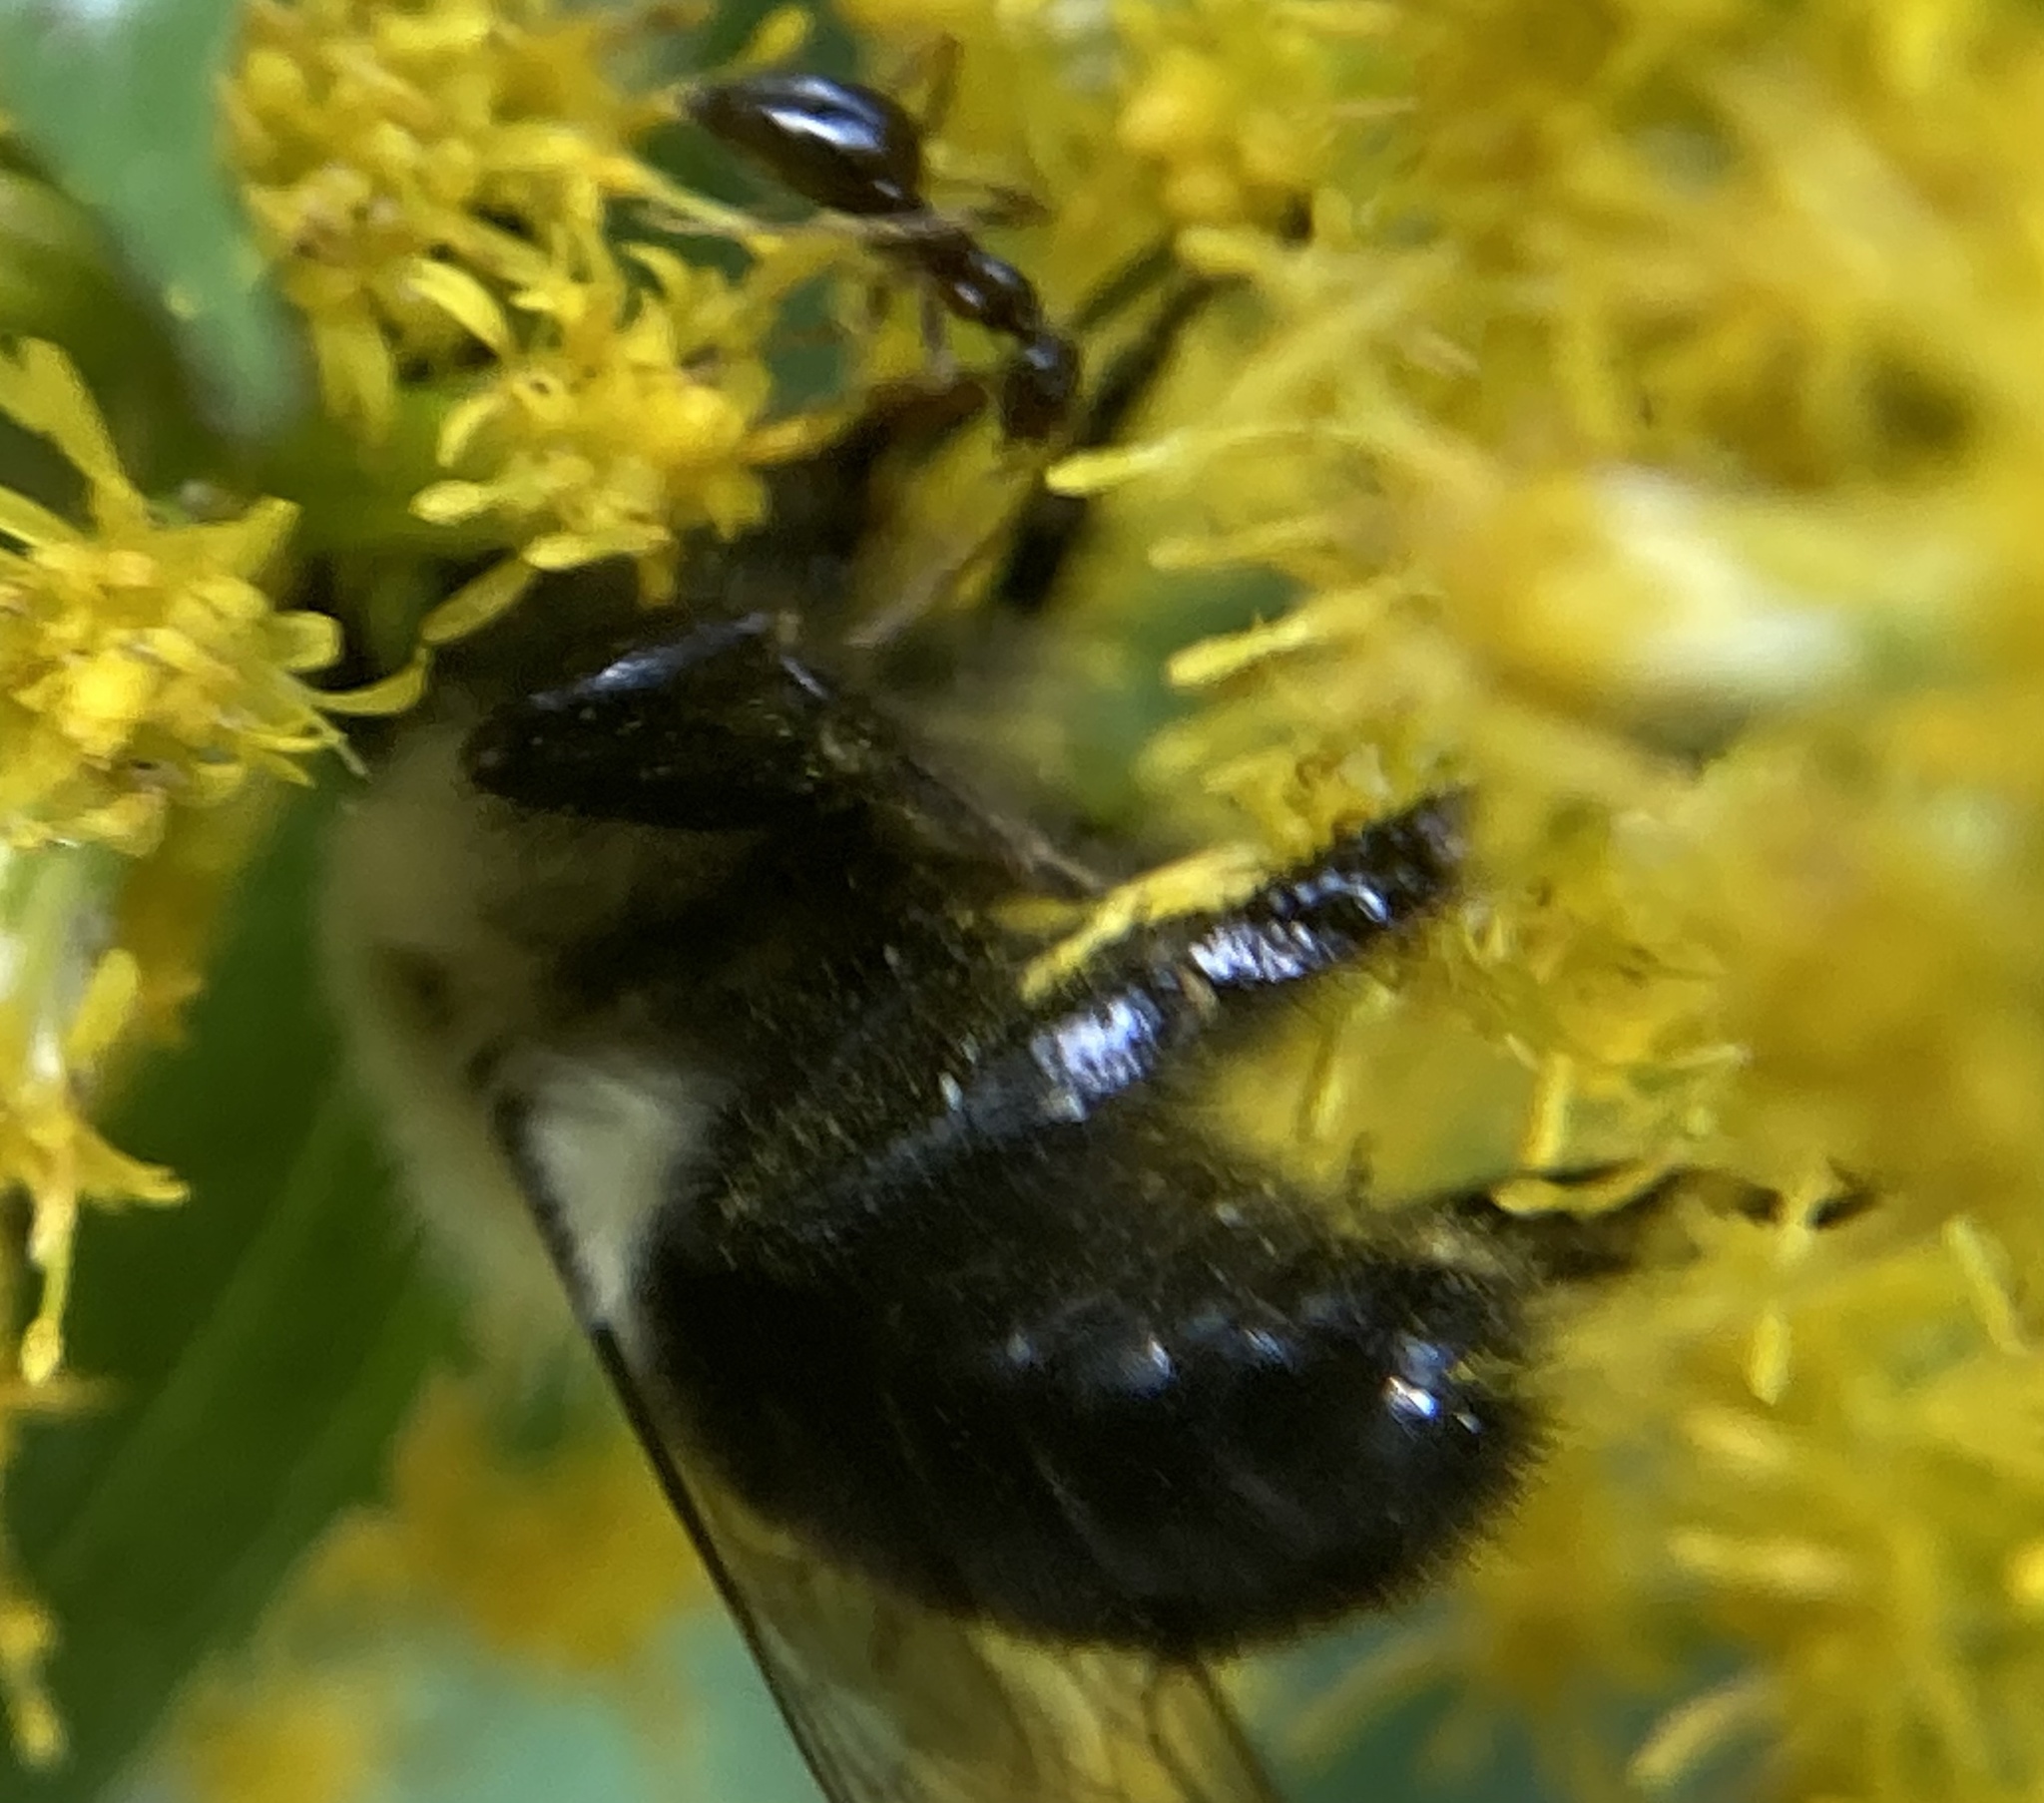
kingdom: Animalia
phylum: Arthropoda
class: Insecta
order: Hymenoptera
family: Apidae
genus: Bombus
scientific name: Bombus impatiens
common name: Common eastern bumble bee
